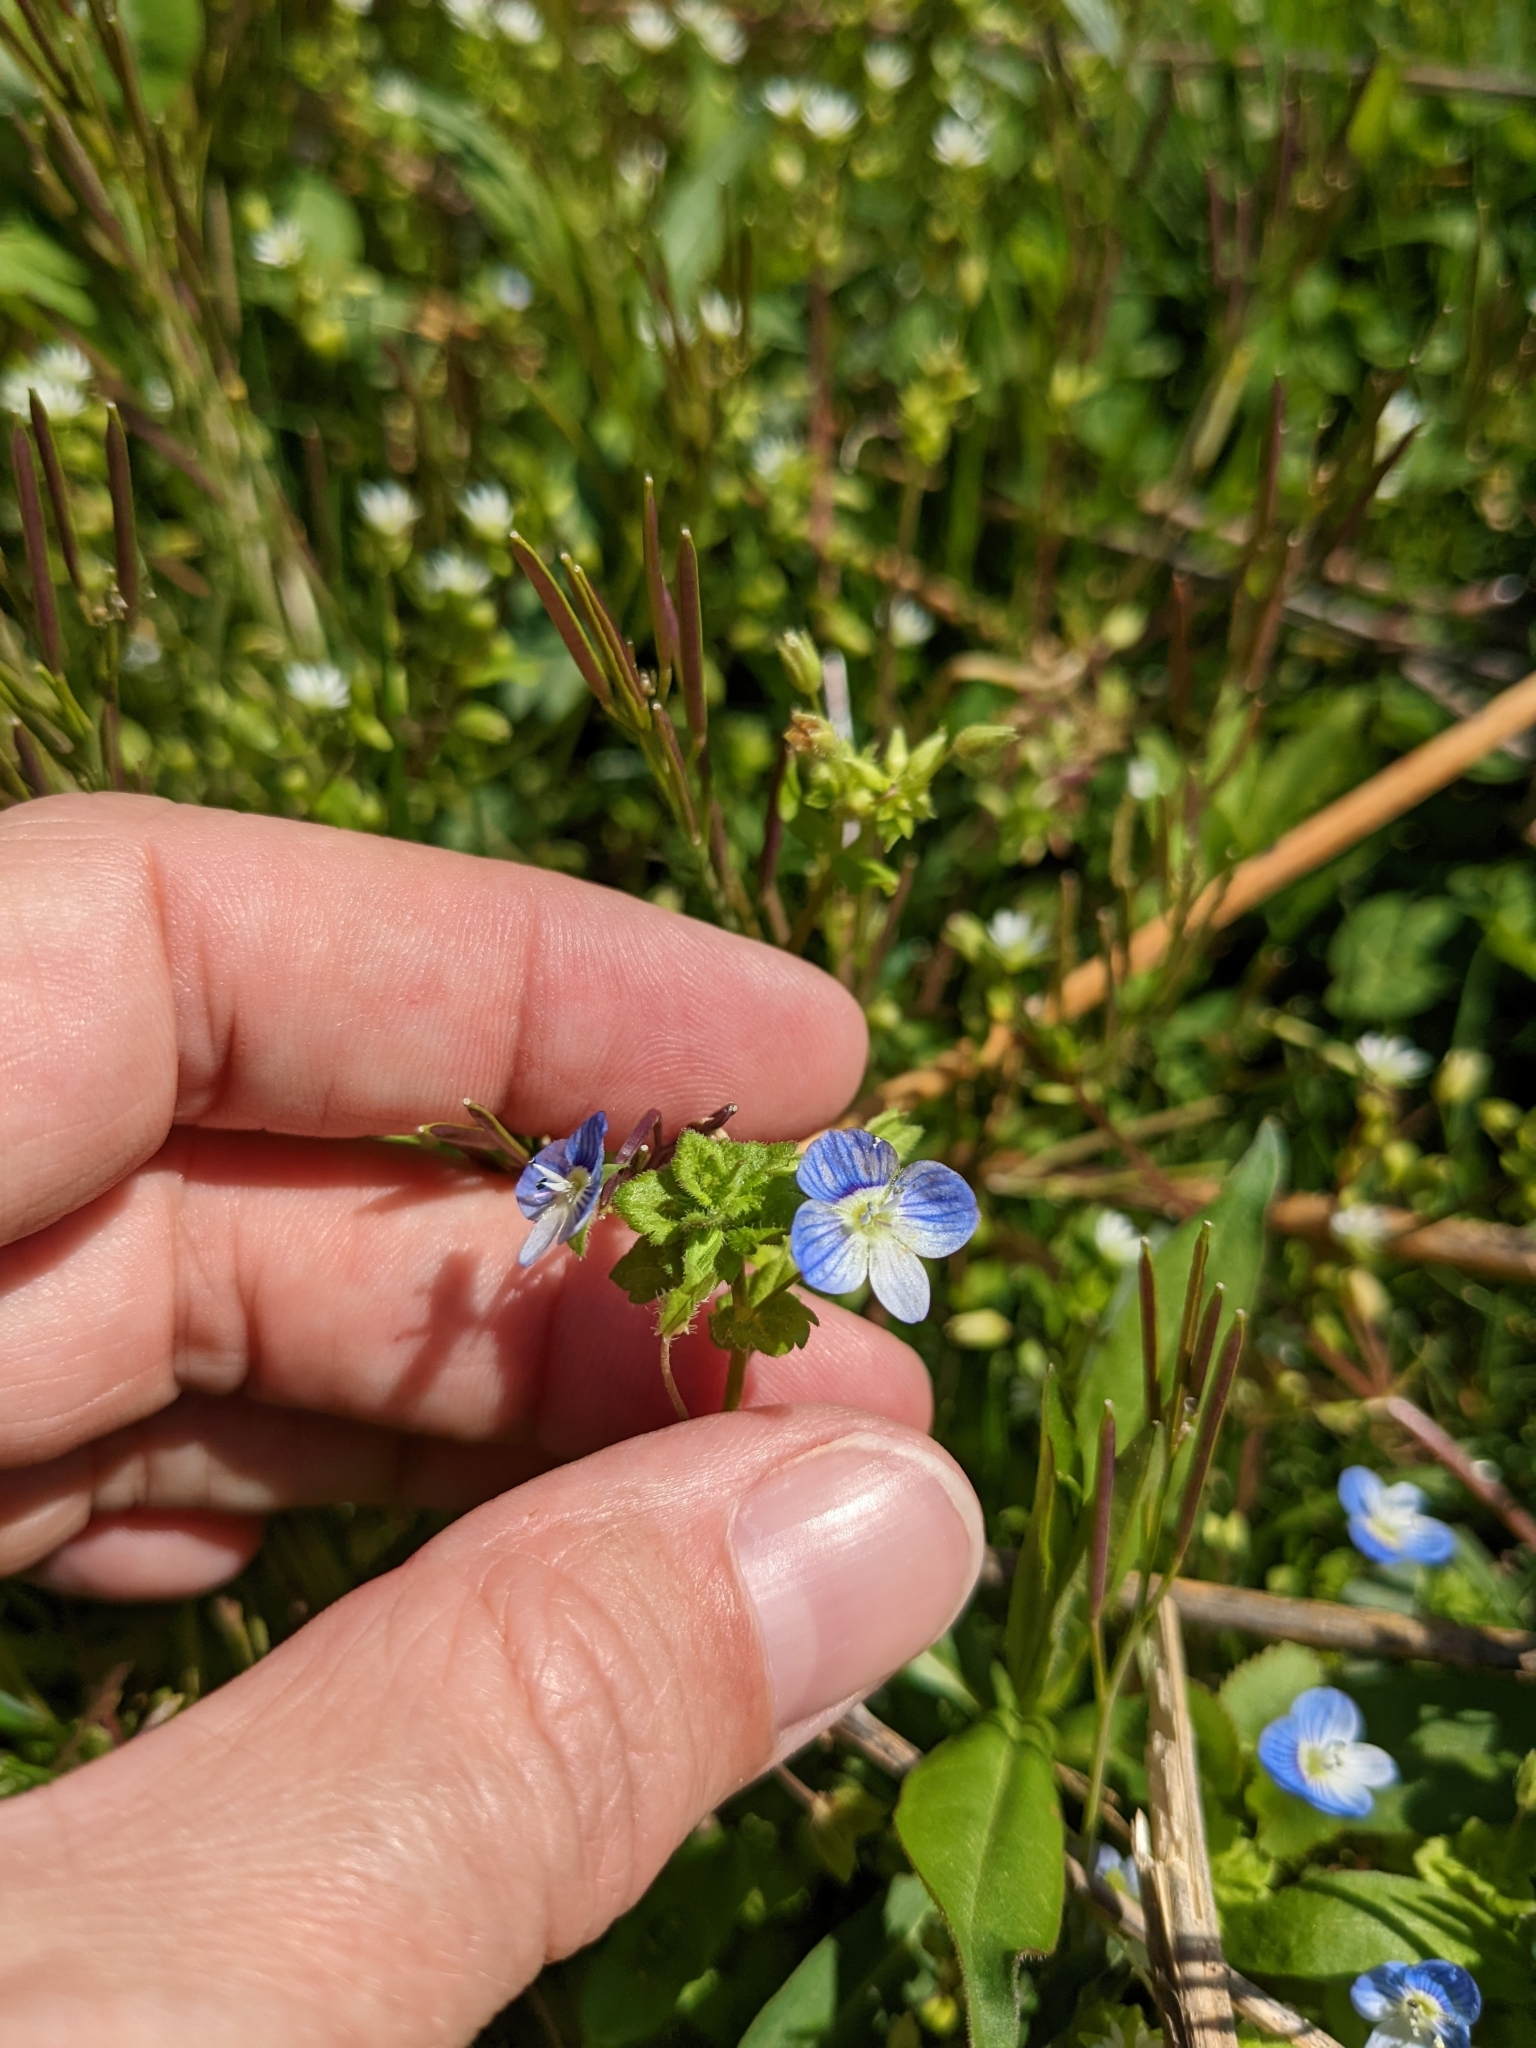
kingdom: Plantae
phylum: Tracheophyta
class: Magnoliopsida
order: Lamiales
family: Plantaginaceae
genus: Veronica
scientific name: Veronica persica
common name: Common field-speedwell
